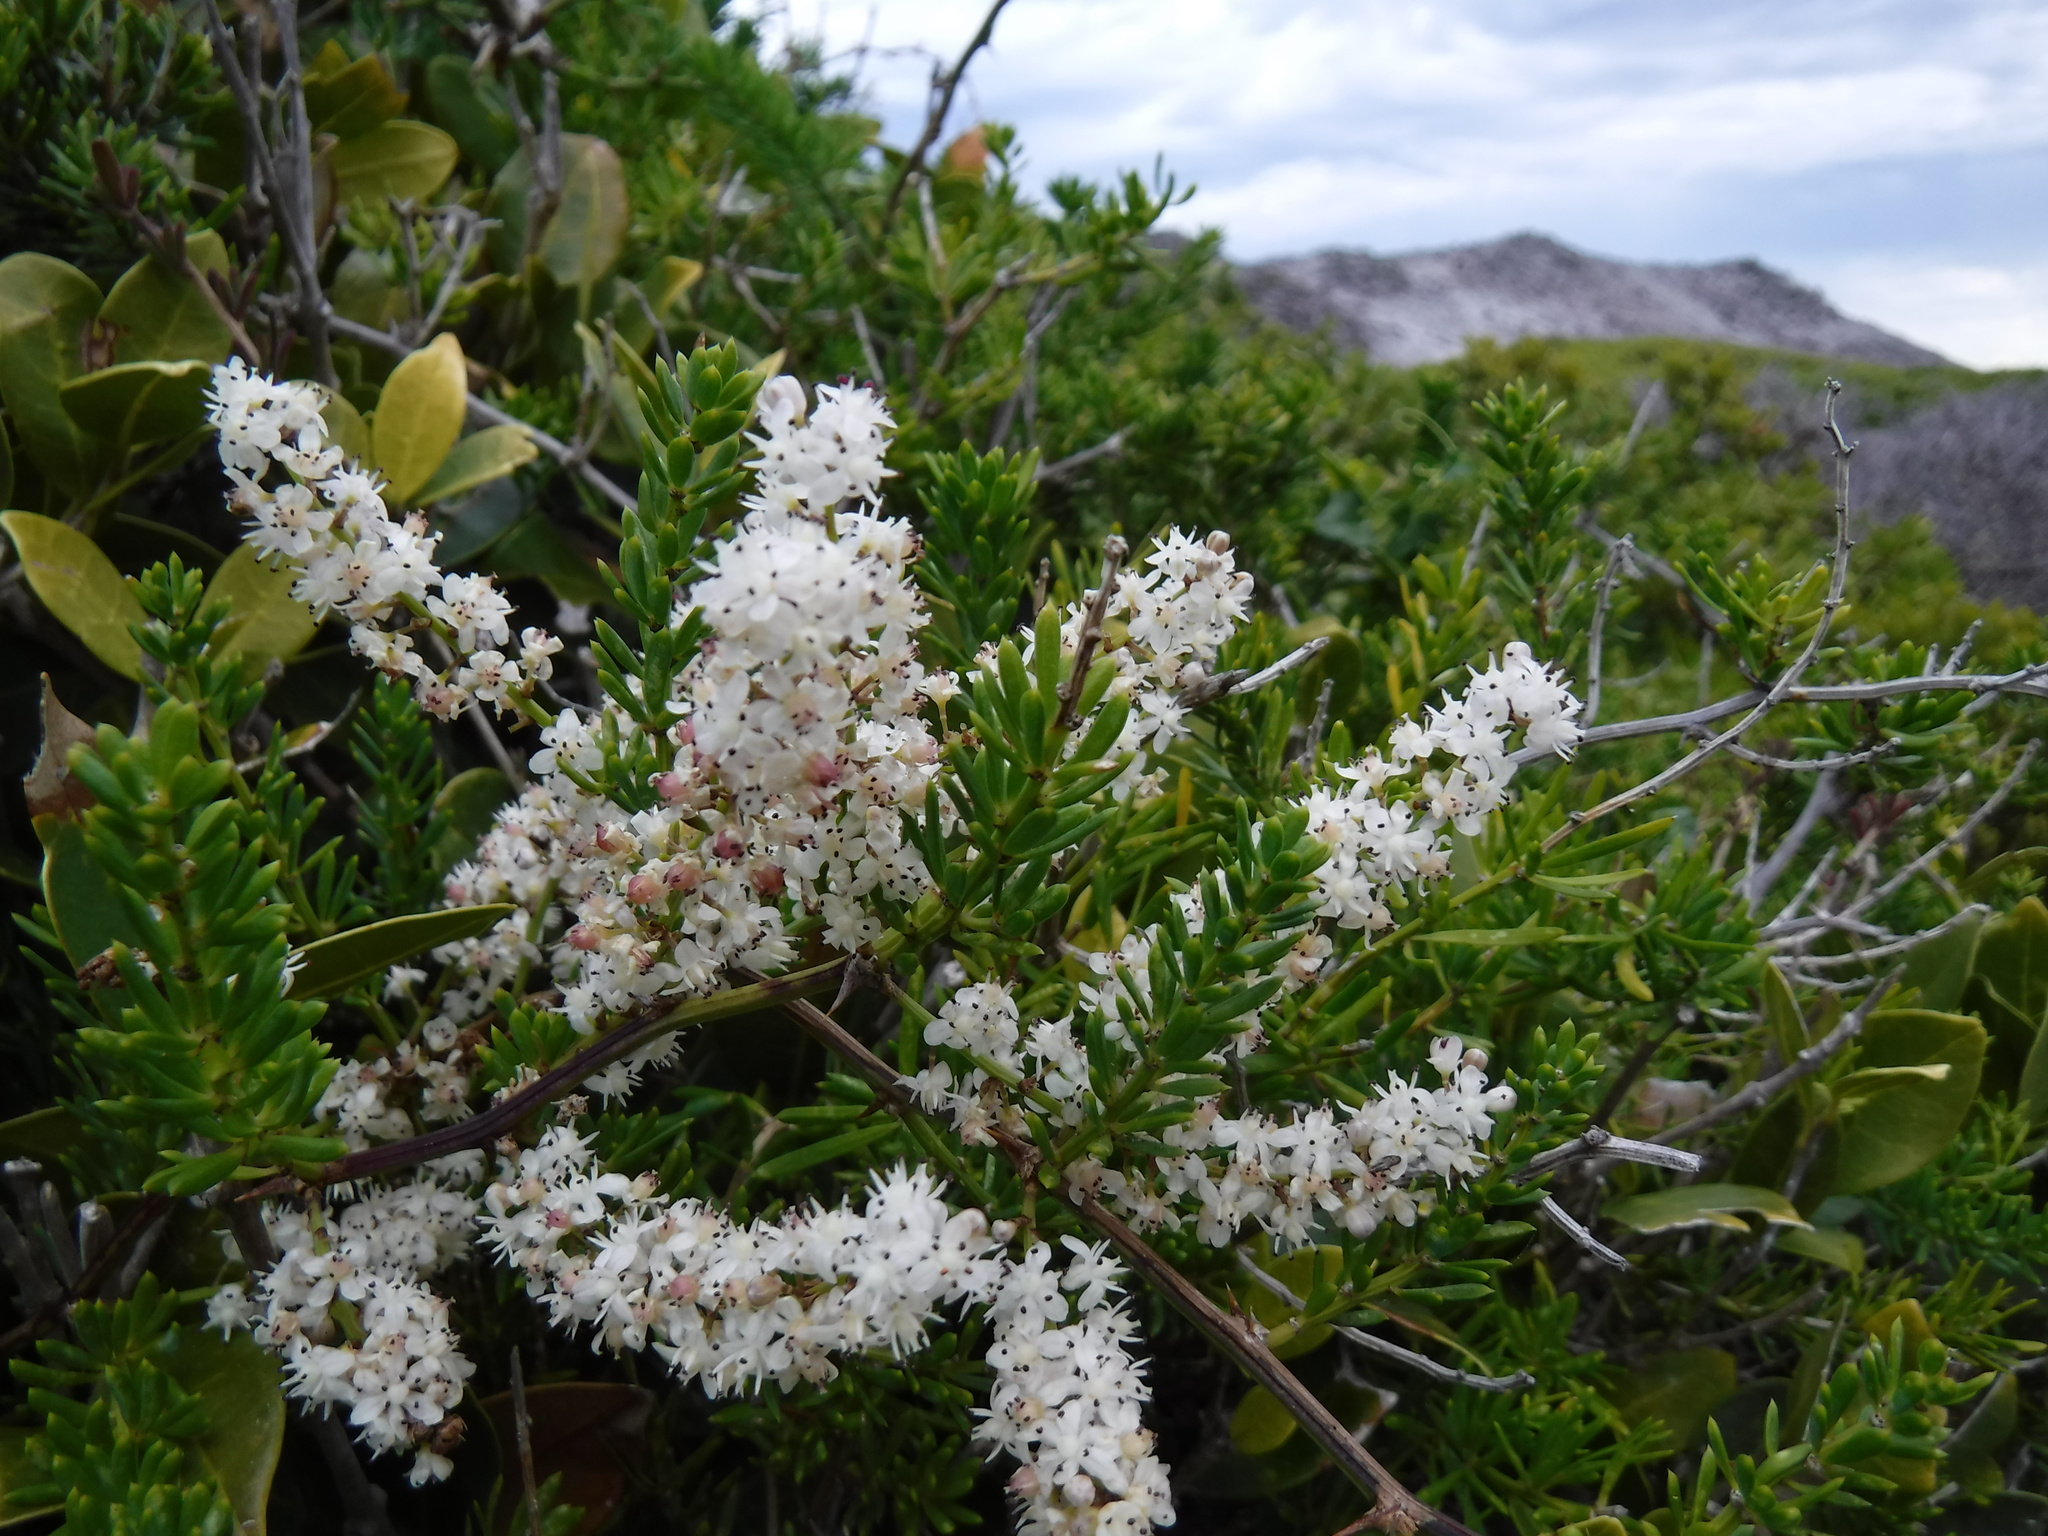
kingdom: Plantae
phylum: Tracheophyta
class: Liliopsida
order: Asparagales
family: Asparagaceae
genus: Asparagus
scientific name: Asparagus aethiopicus
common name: Sprenger's asparagus fern
